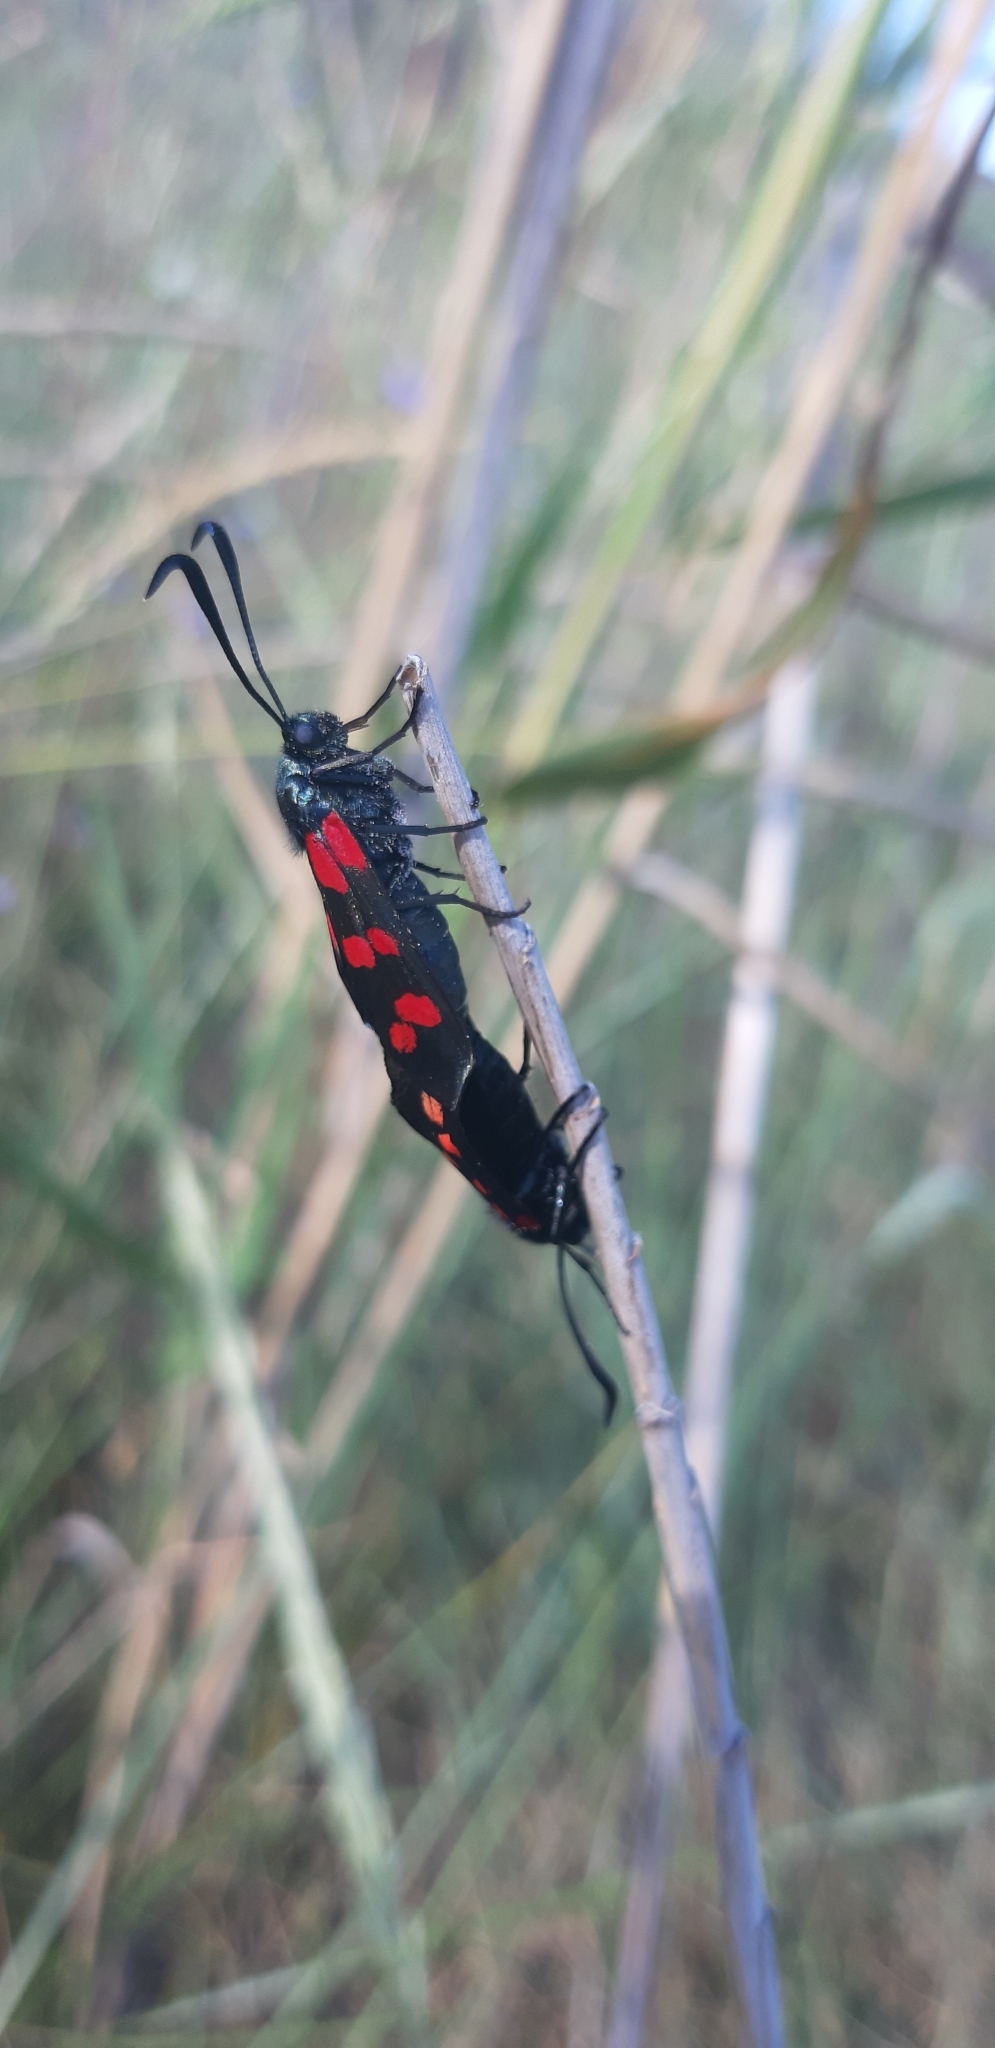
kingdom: Animalia
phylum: Arthropoda
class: Insecta
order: Lepidoptera
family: Zygaenidae
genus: Zygaena
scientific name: Zygaena filipendulae
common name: Six-spot burnet
